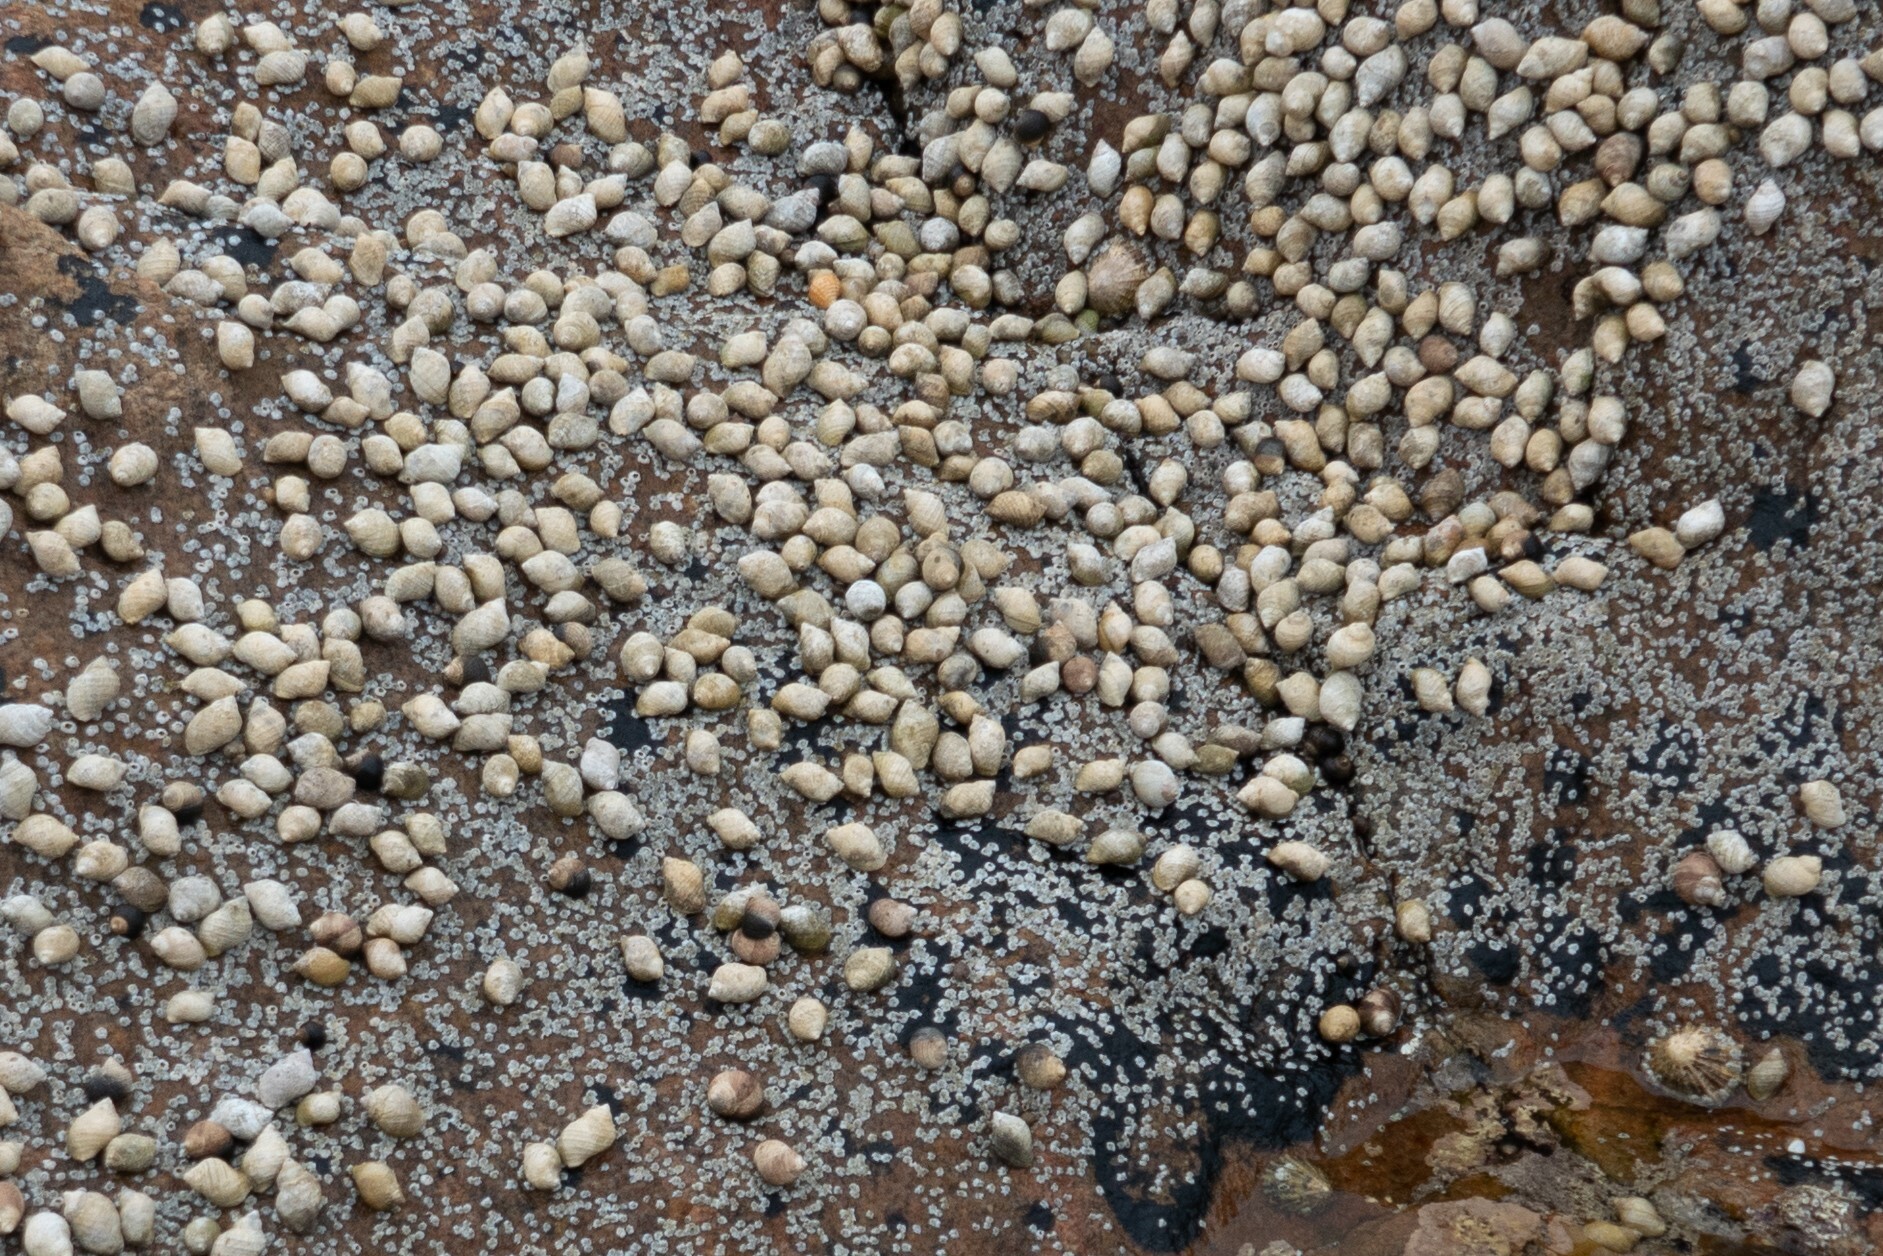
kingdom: Animalia
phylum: Mollusca
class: Gastropoda
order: Neogastropoda
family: Muricidae
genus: Nucella
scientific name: Nucella lapillus
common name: Dog whelk
